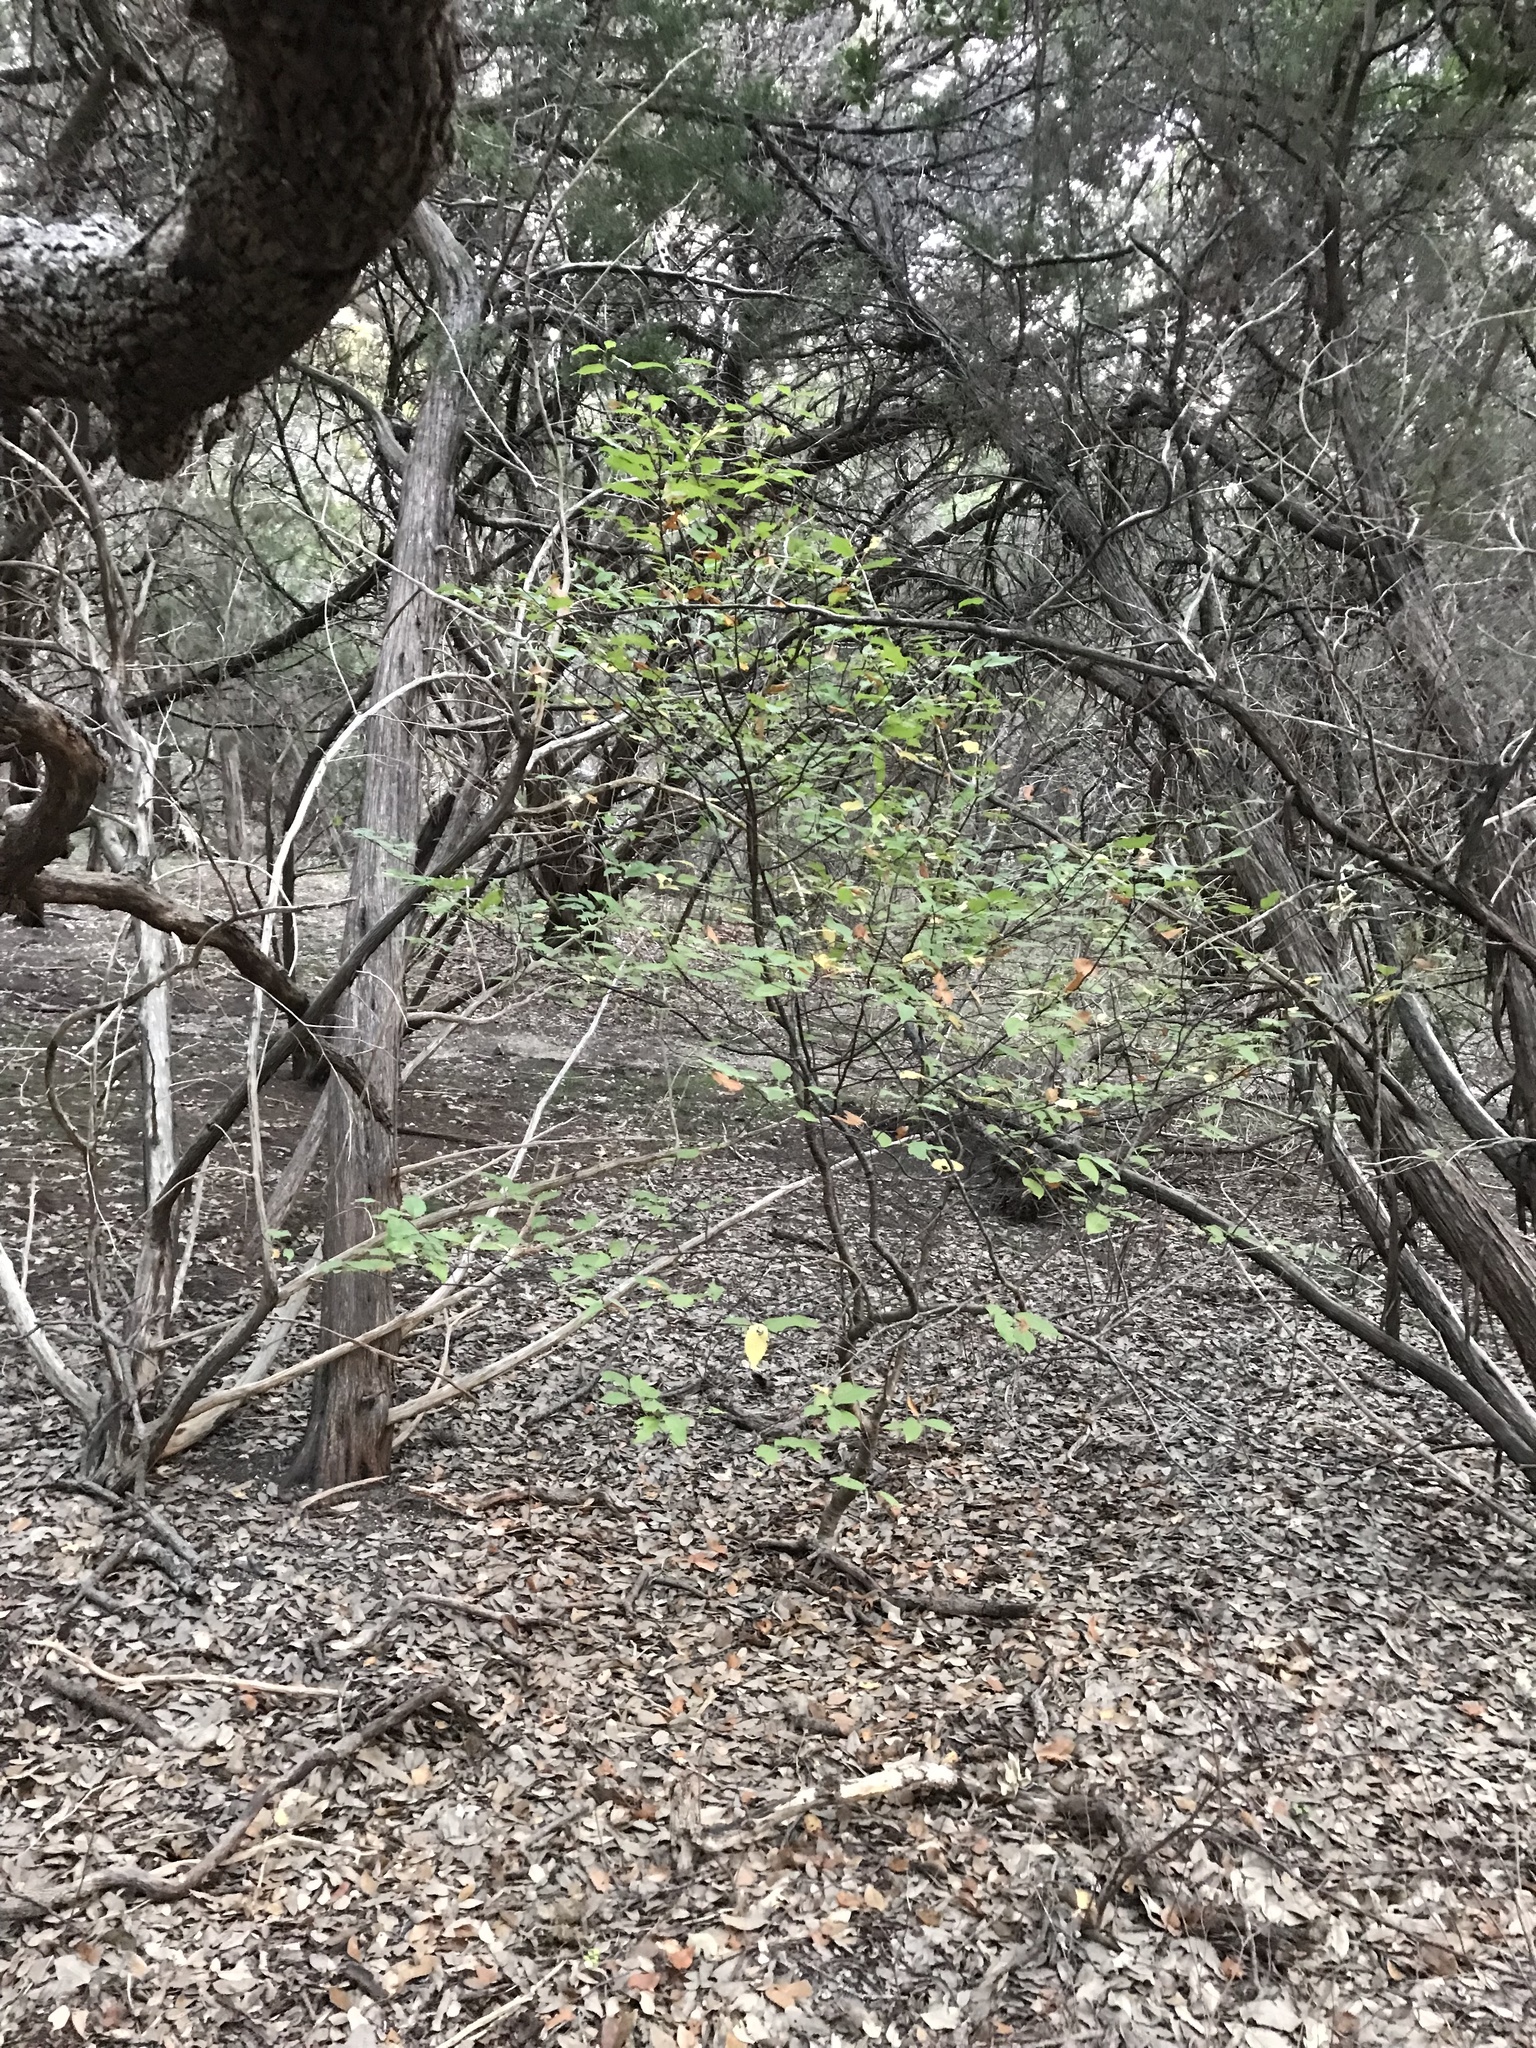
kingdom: Plantae
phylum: Tracheophyta
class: Magnoliopsida
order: Rosales
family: Rosaceae
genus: Prunus
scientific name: Prunus serotina
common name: Black cherry
